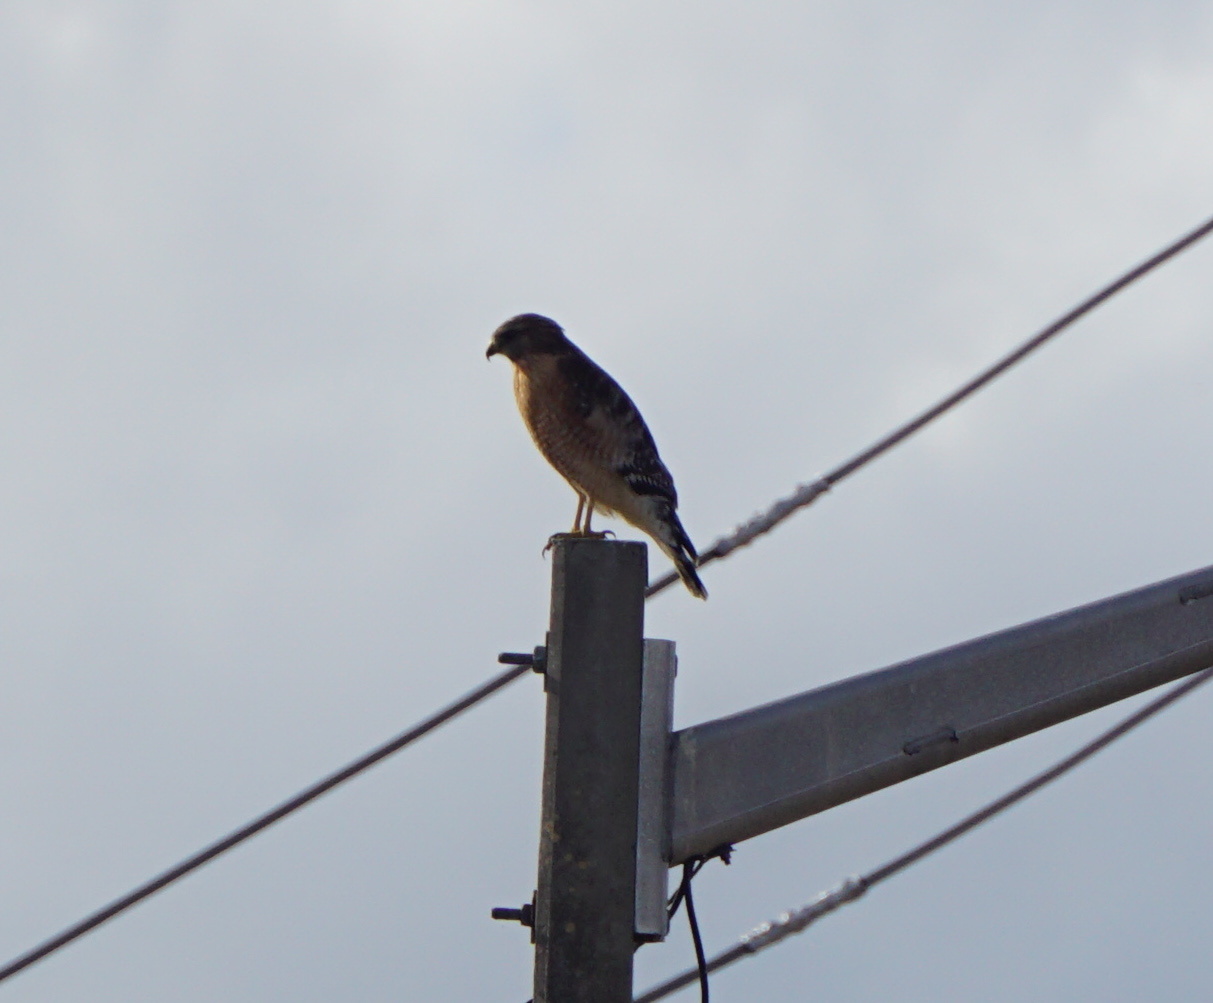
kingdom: Animalia
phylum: Chordata
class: Aves
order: Accipitriformes
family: Accipitridae
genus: Buteo
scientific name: Buteo lineatus
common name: Red-shouldered hawk
